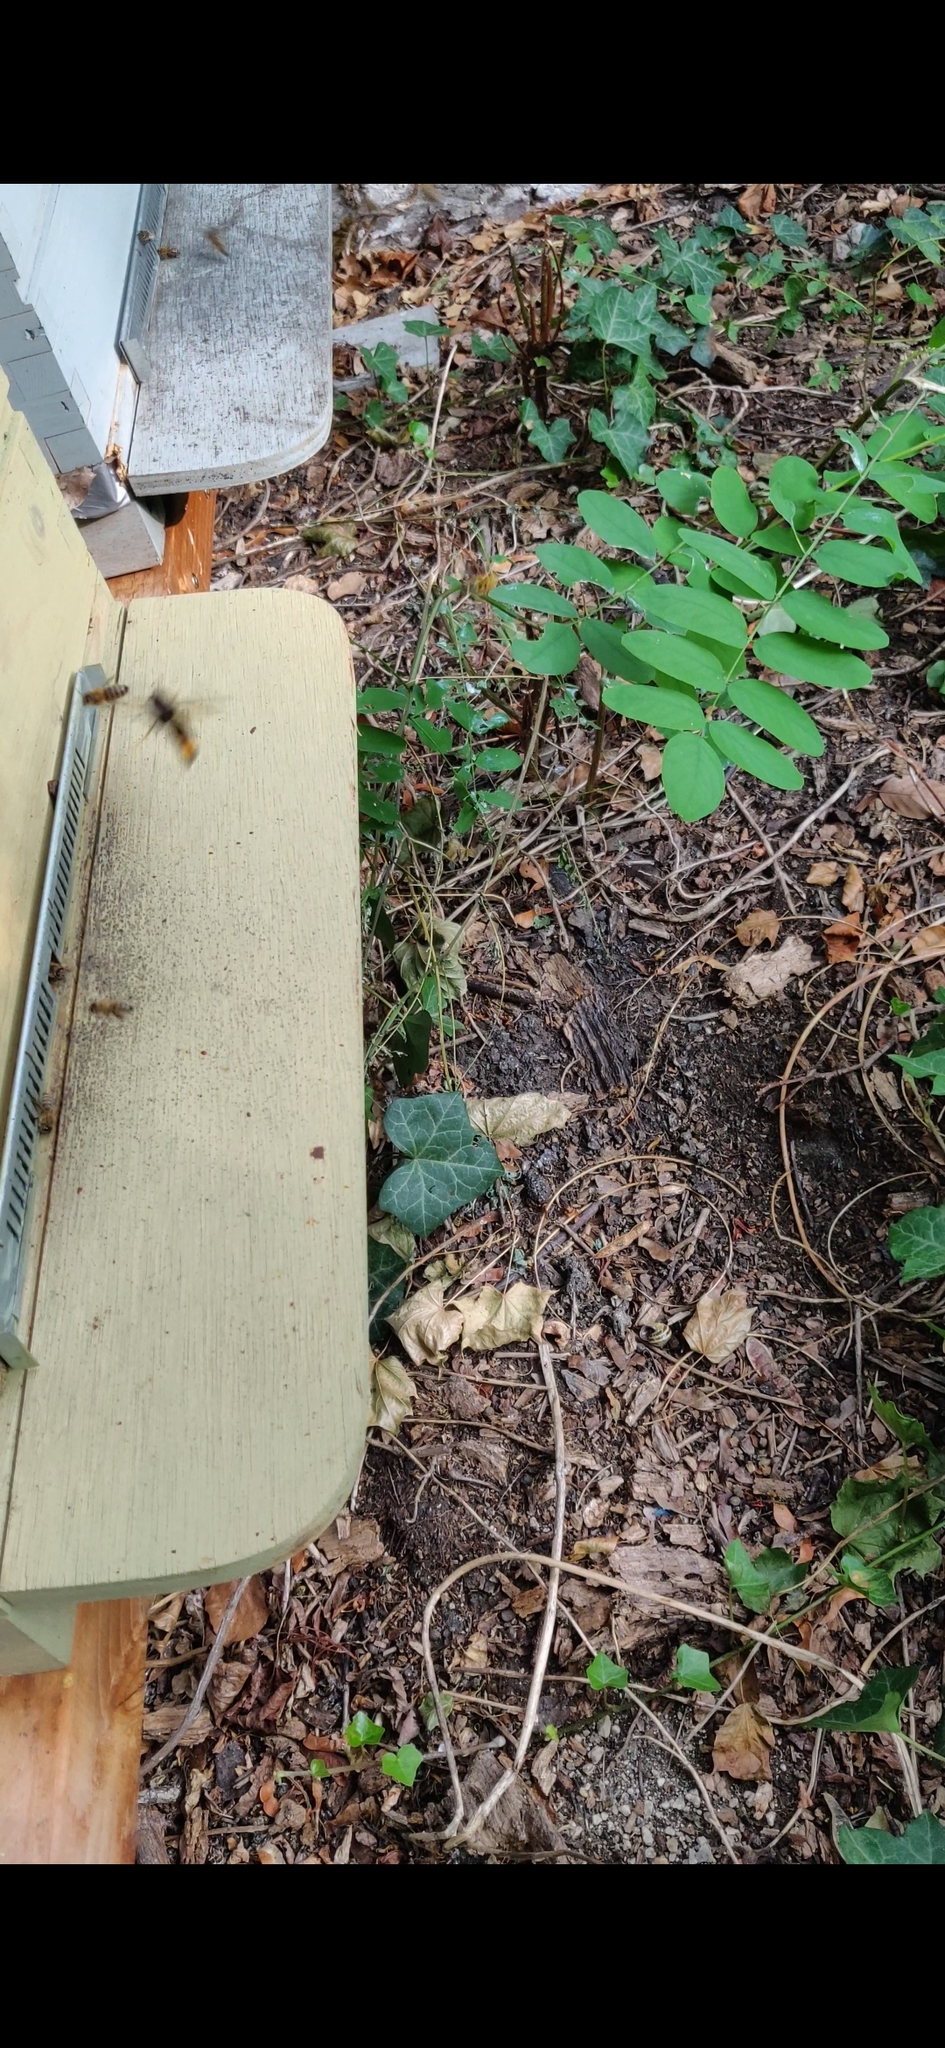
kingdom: Animalia
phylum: Arthropoda
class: Insecta
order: Hymenoptera
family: Vespidae
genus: Vespa
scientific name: Vespa velutina
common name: Asian hornet
